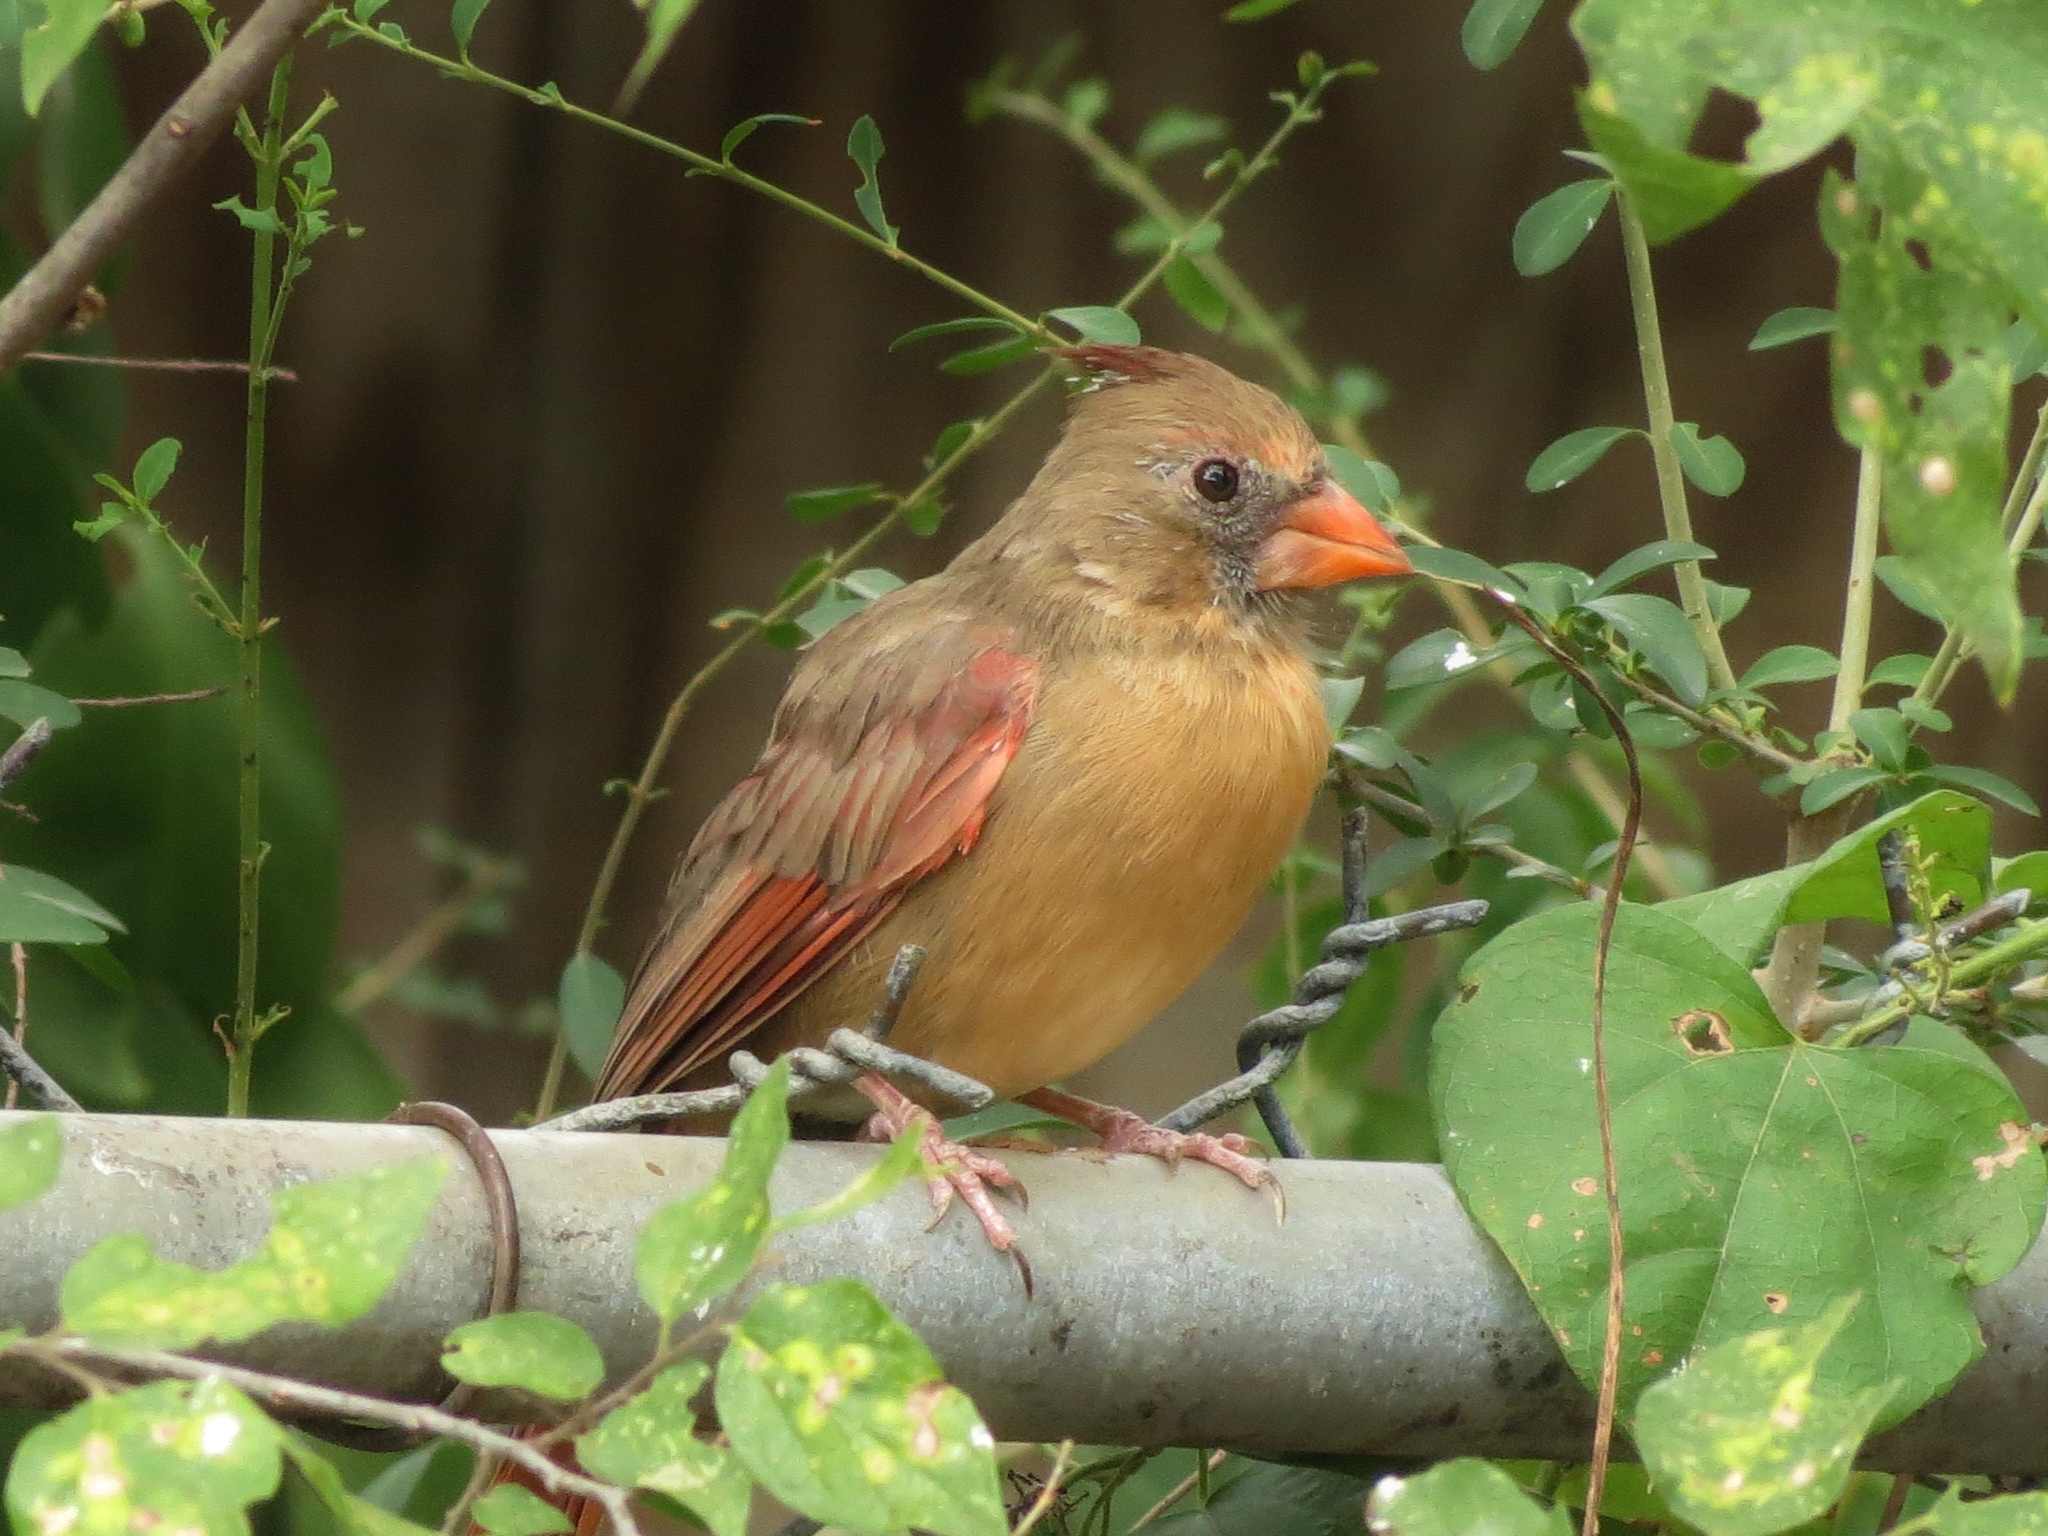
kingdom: Animalia
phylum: Chordata
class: Aves
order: Passeriformes
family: Cardinalidae
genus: Cardinalis
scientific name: Cardinalis cardinalis
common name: Northern cardinal
